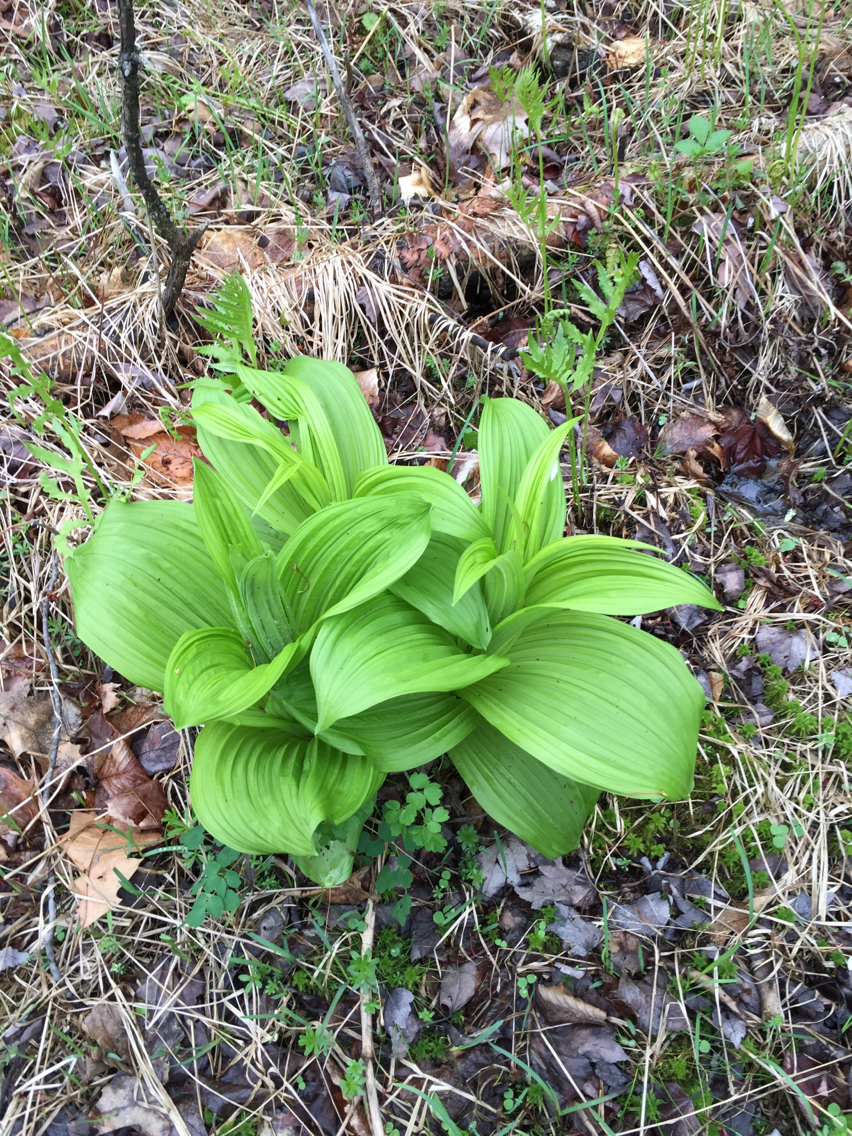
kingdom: Plantae
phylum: Tracheophyta
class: Liliopsida
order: Liliales
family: Melanthiaceae
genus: Veratrum
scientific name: Veratrum viride
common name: American false hellebore
